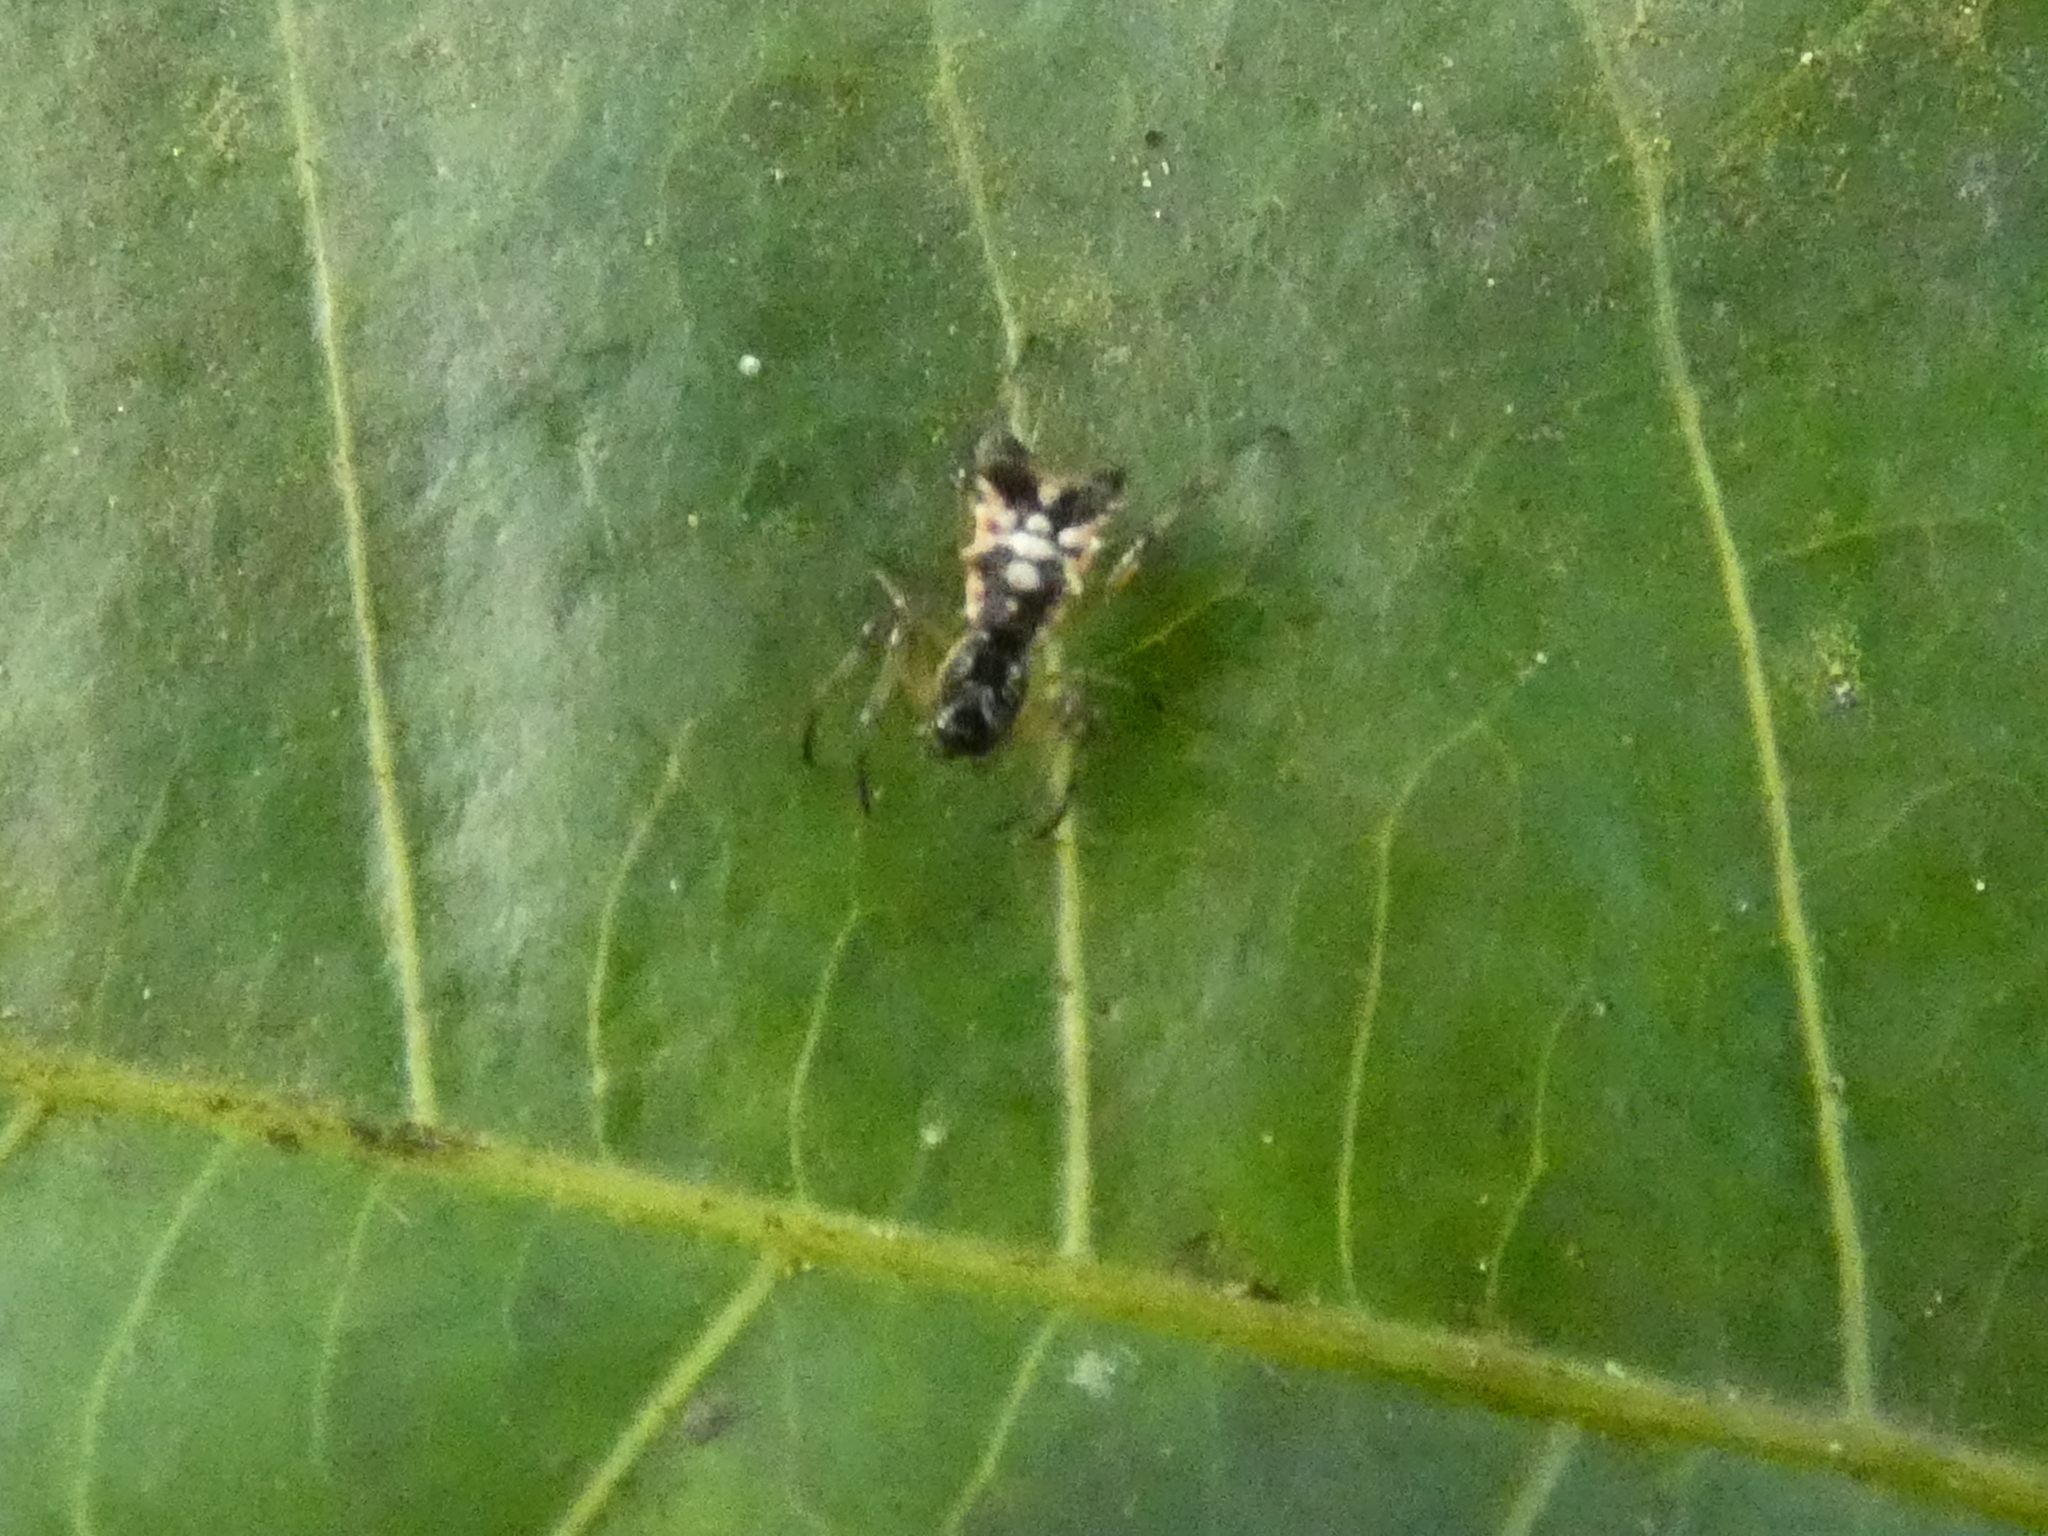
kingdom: Animalia
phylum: Arthropoda
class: Arachnida
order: Araneae
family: Araneidae
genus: Micrathena
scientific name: Micrathena picta
